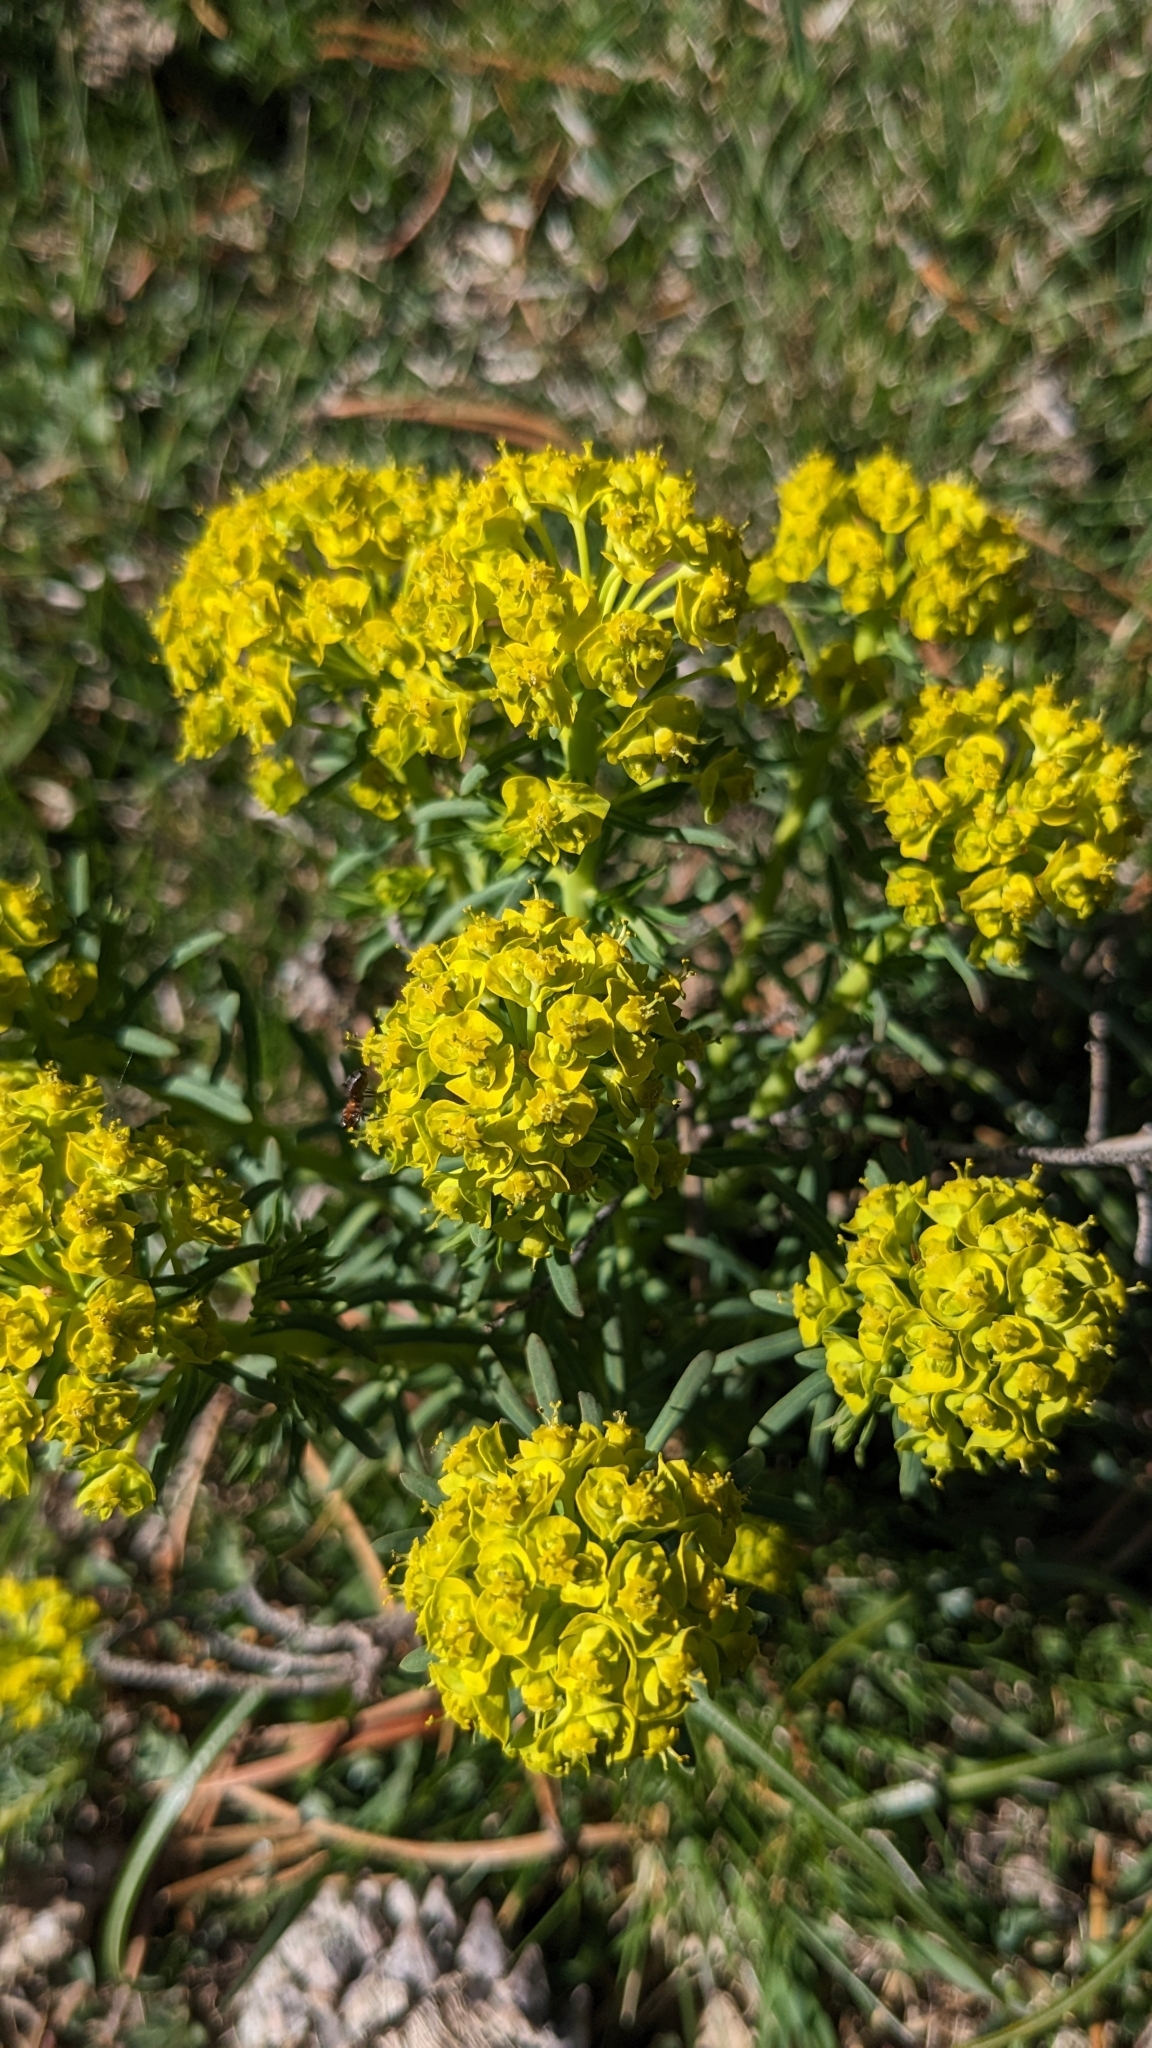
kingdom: Plantae
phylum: Tracheophyta
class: Magnoliopsida
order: Malpighiales
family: Euphorbiaceae
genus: Euphorbia
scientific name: Euphorbia cyparissias
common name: Cypress spurge
